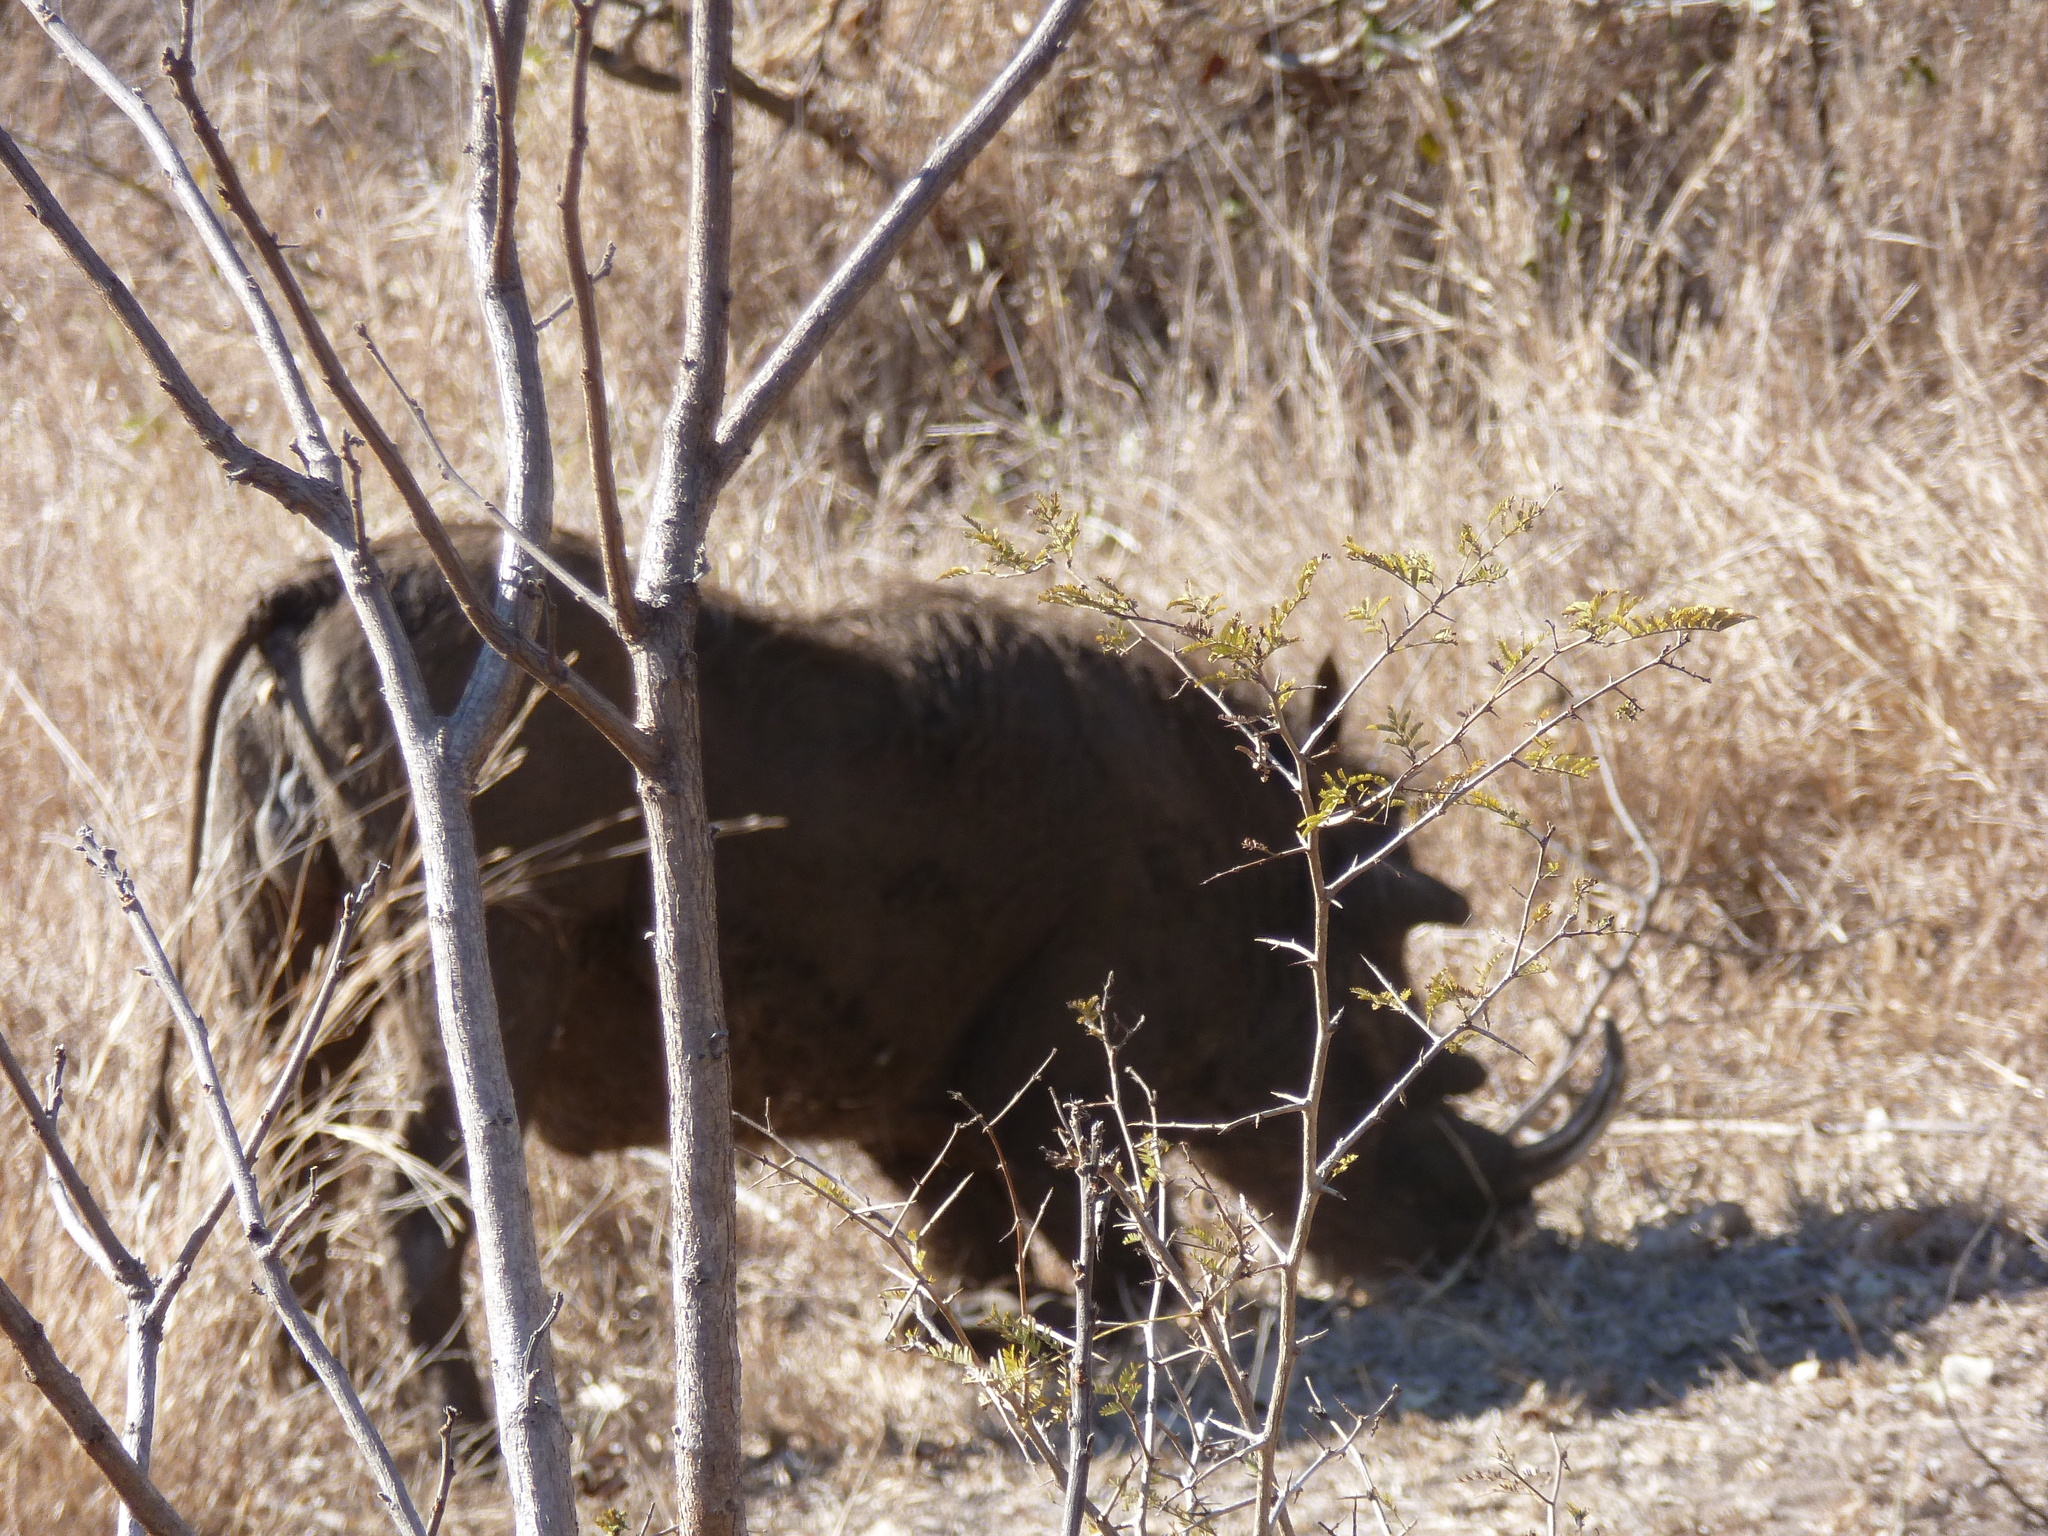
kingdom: Animalia
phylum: Chordata
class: Mammalia
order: Artiodactyla
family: Suidae
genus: Phacochoerus
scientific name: Phacochoerus africanus
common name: Common warthog
